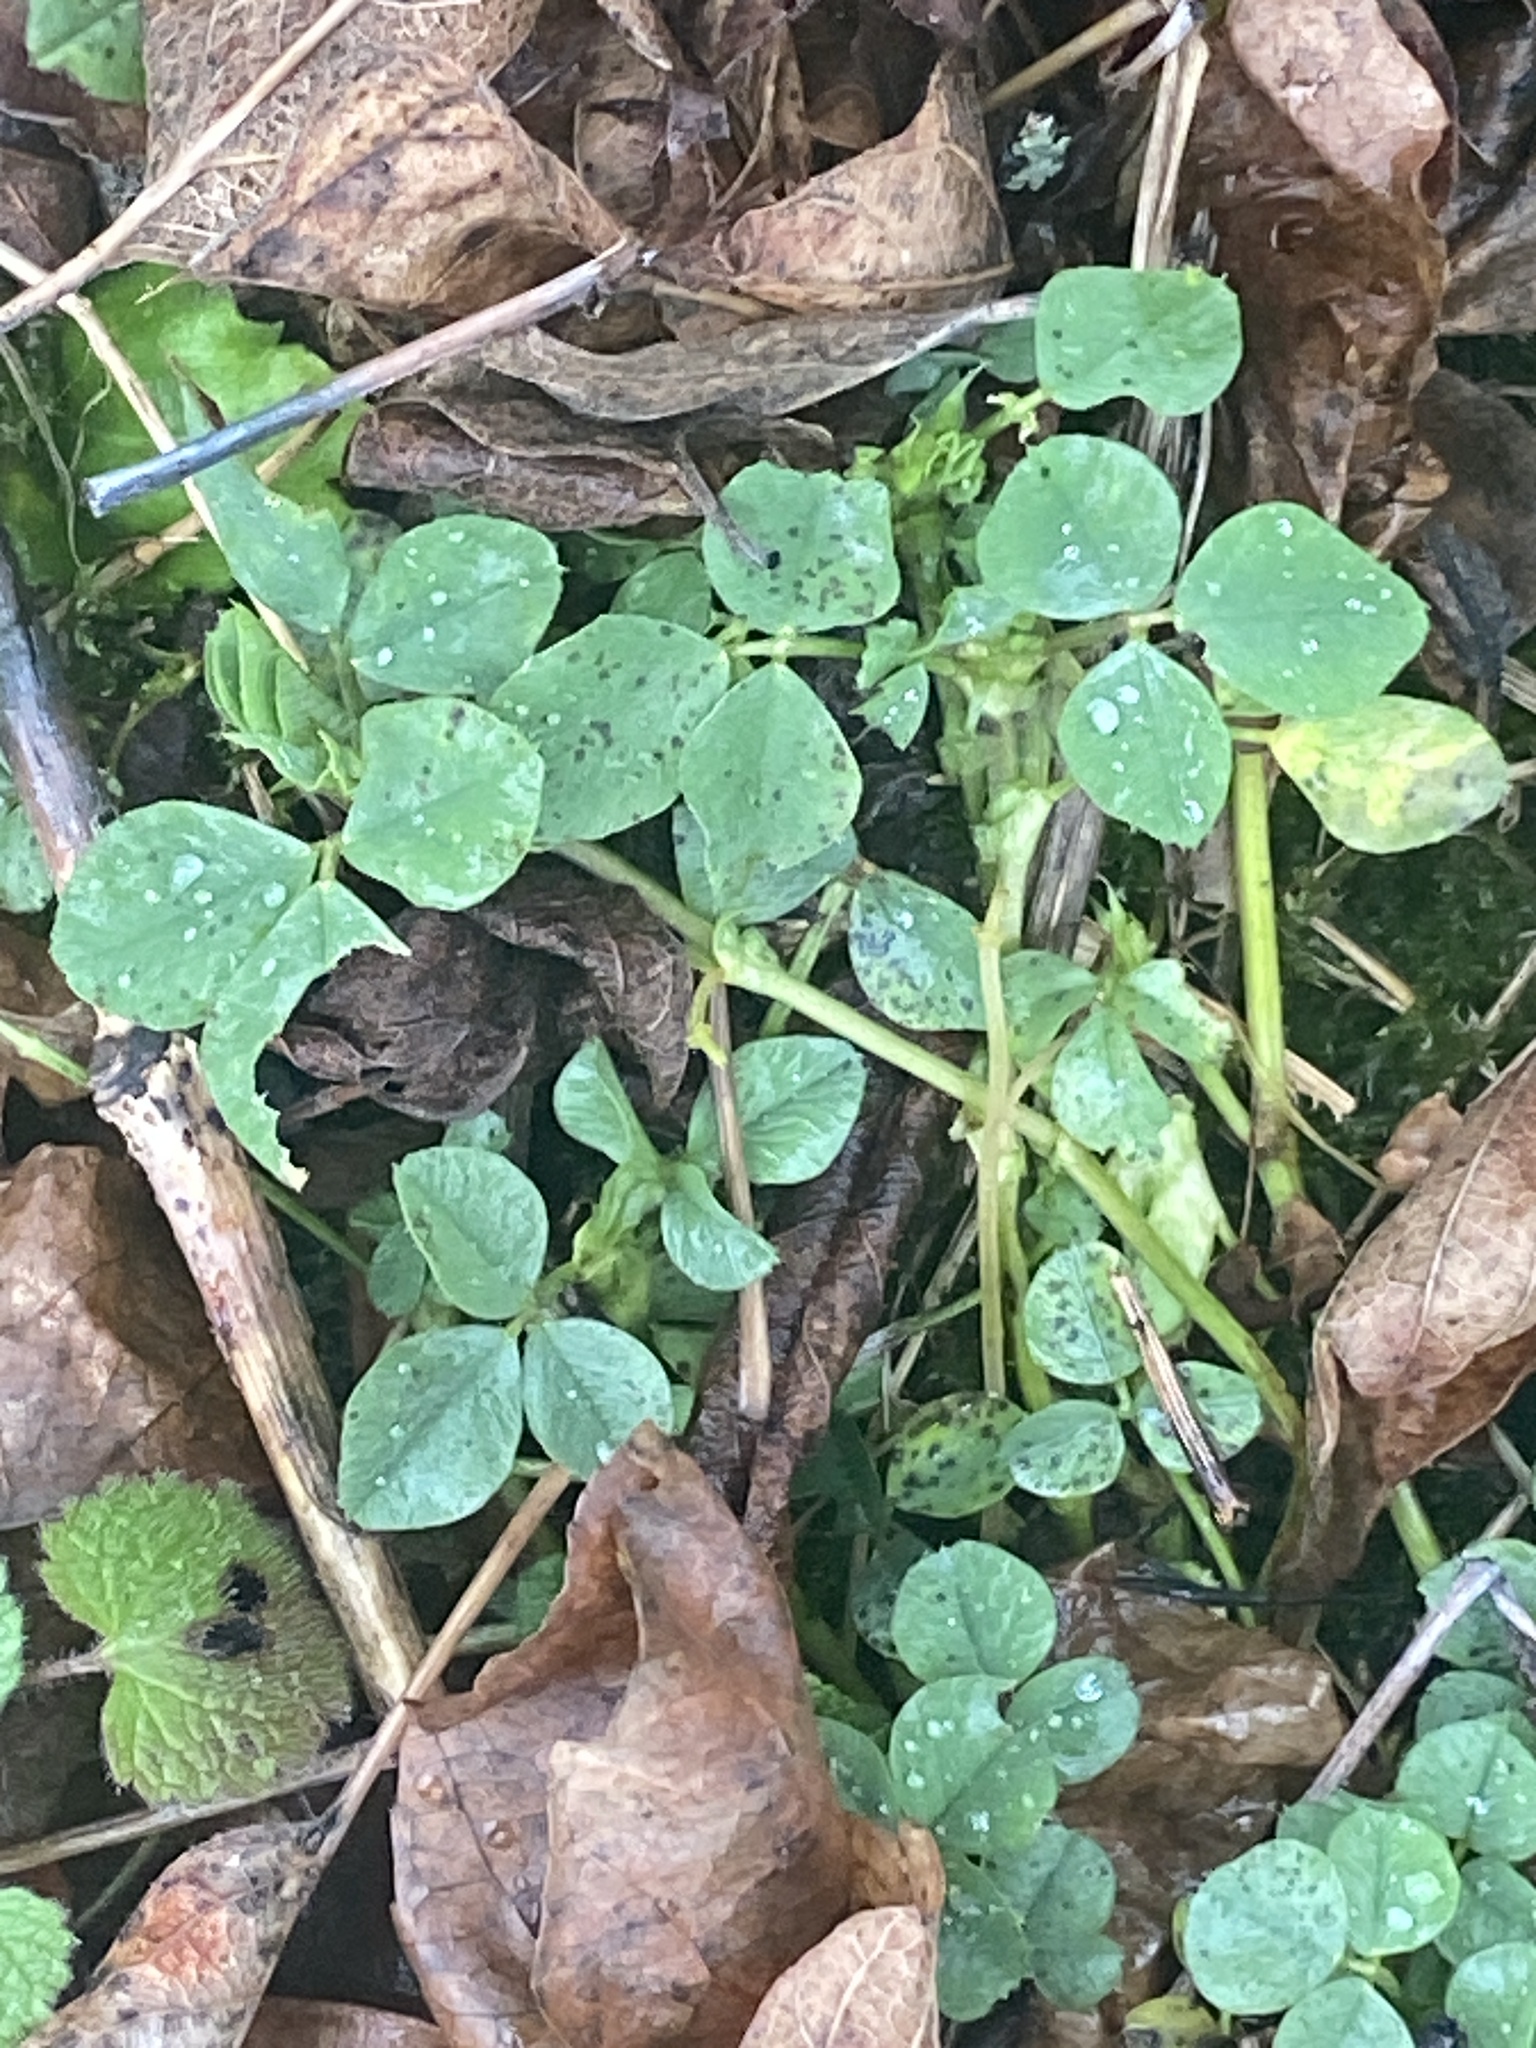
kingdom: Plantae
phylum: Tracheophyta
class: Magnoliopsida
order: Fabales
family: Fabaceae
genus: Medicago
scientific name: Medicago lupulina
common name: Black medick
